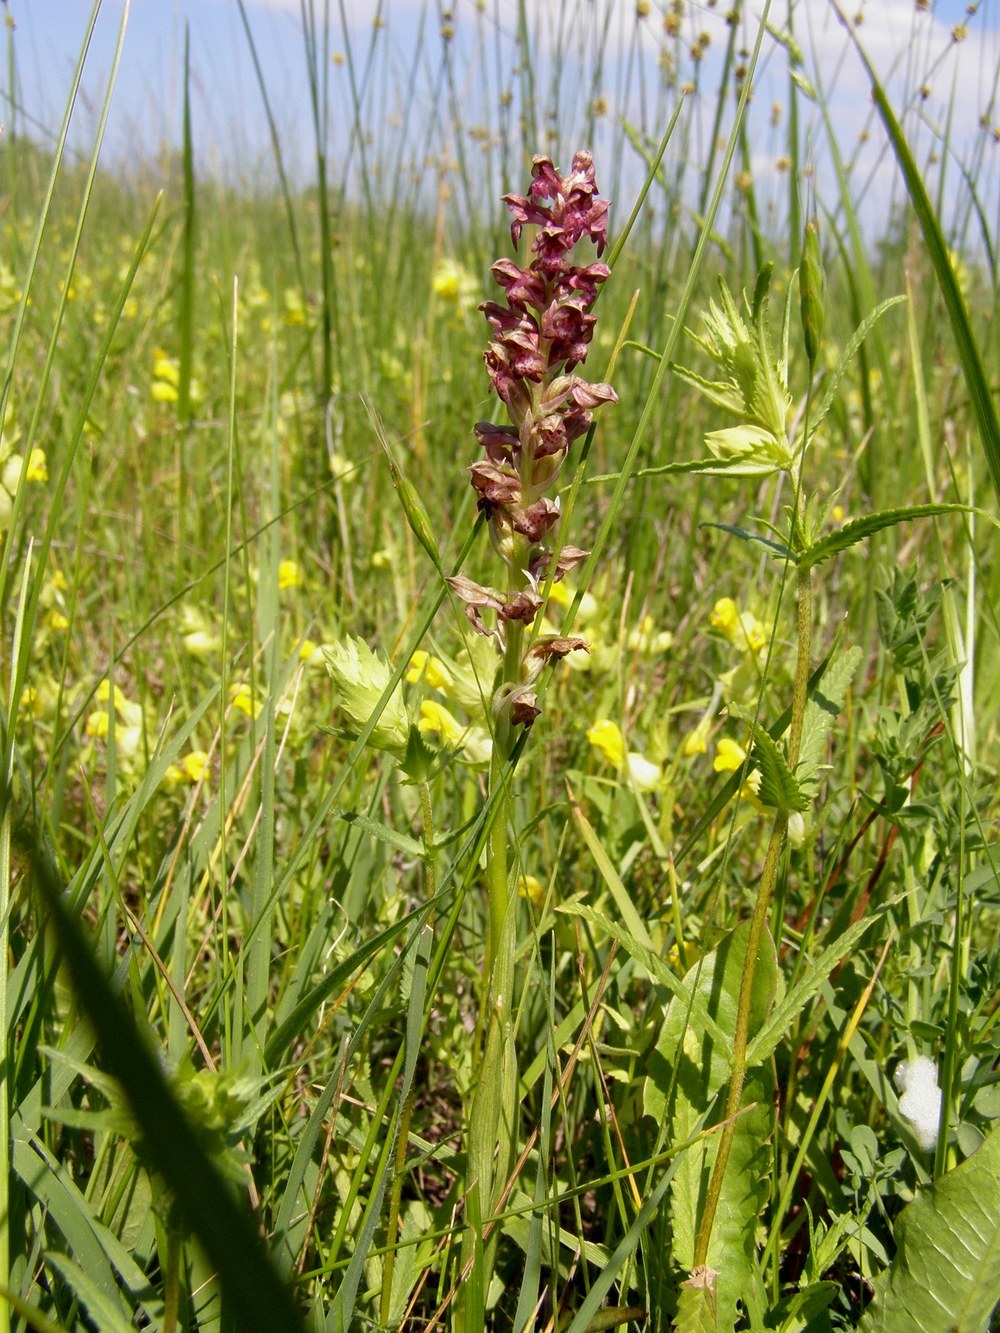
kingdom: Plantae
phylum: Tracheophyta
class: Liliopsida
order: Asparagales
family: Orchidaceae
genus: Anacamptis
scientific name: Anacamptis coriophora
